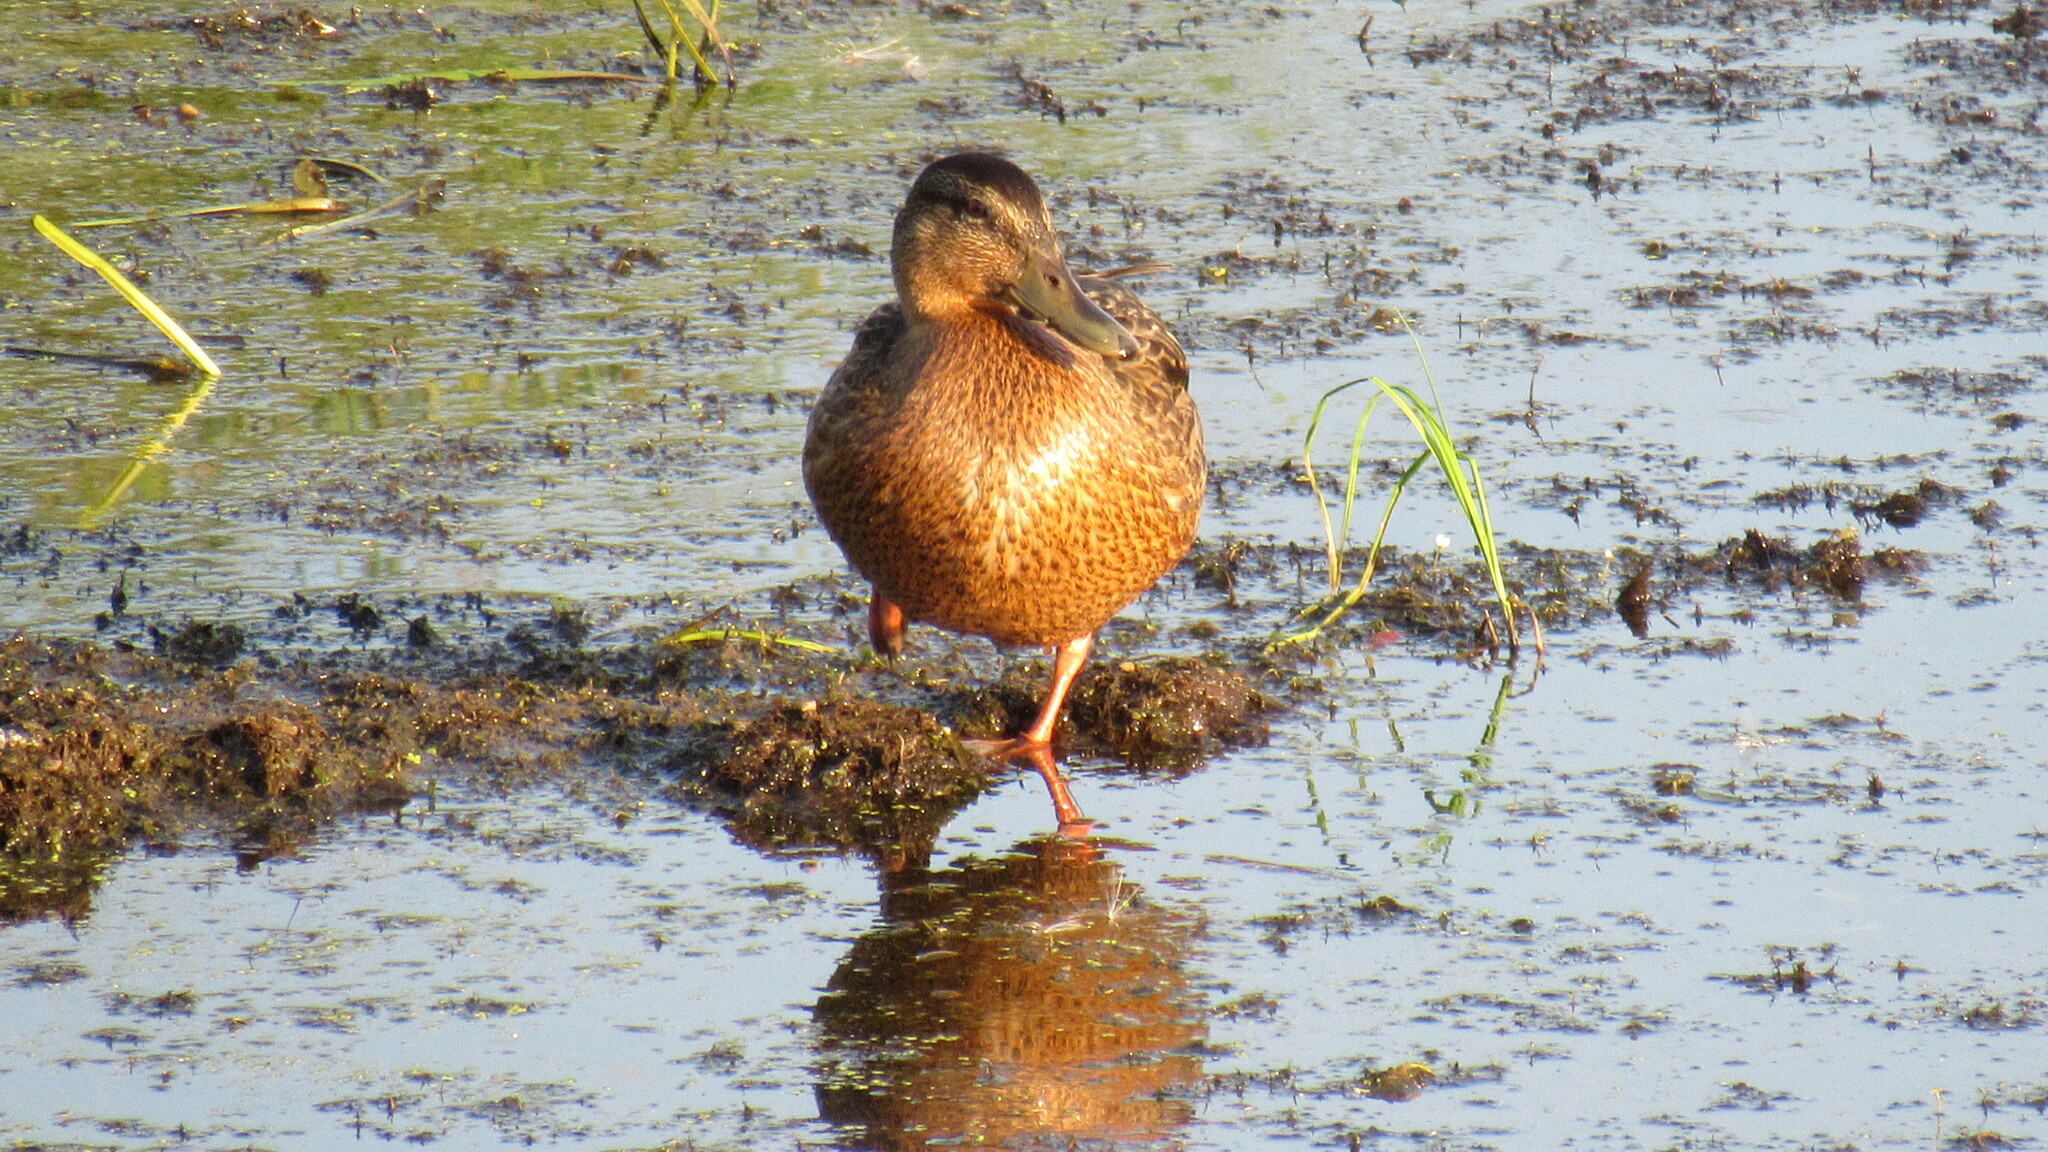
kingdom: Animalia
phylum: Chordata
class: Aves
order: Anseriformes
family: Anatidae
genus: Anas
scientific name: Anas platyrhynchos
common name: Mallard
